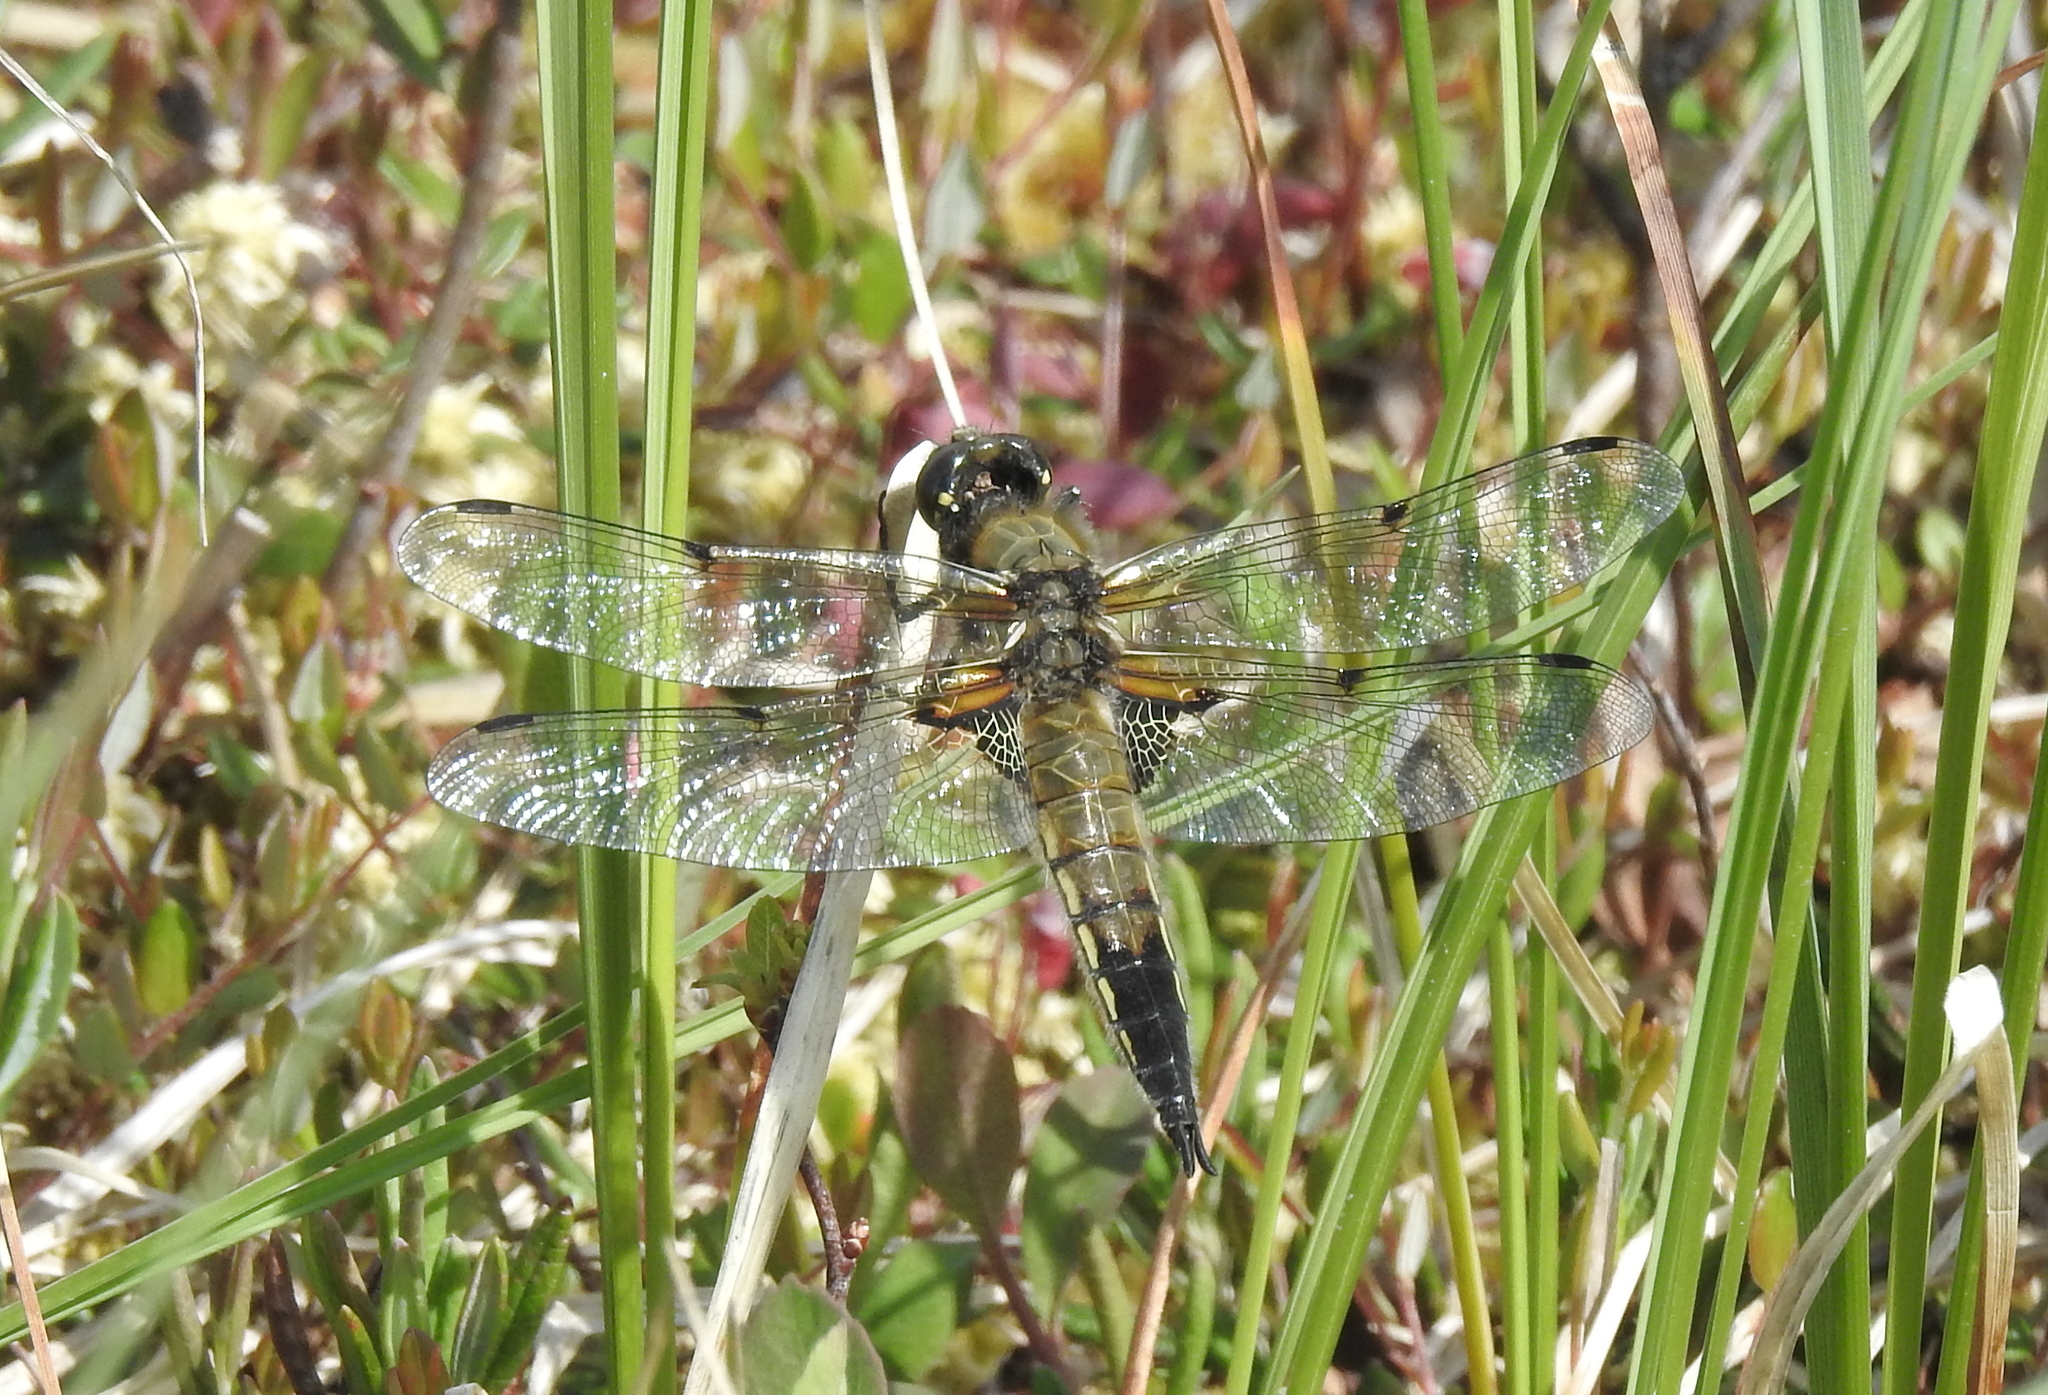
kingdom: Animalia
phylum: Arthropoda
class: Insecta
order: Odonata
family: Libellulidae
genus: Libellula
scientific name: Libellula quadrimaculata
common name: Four-spotted chaser
